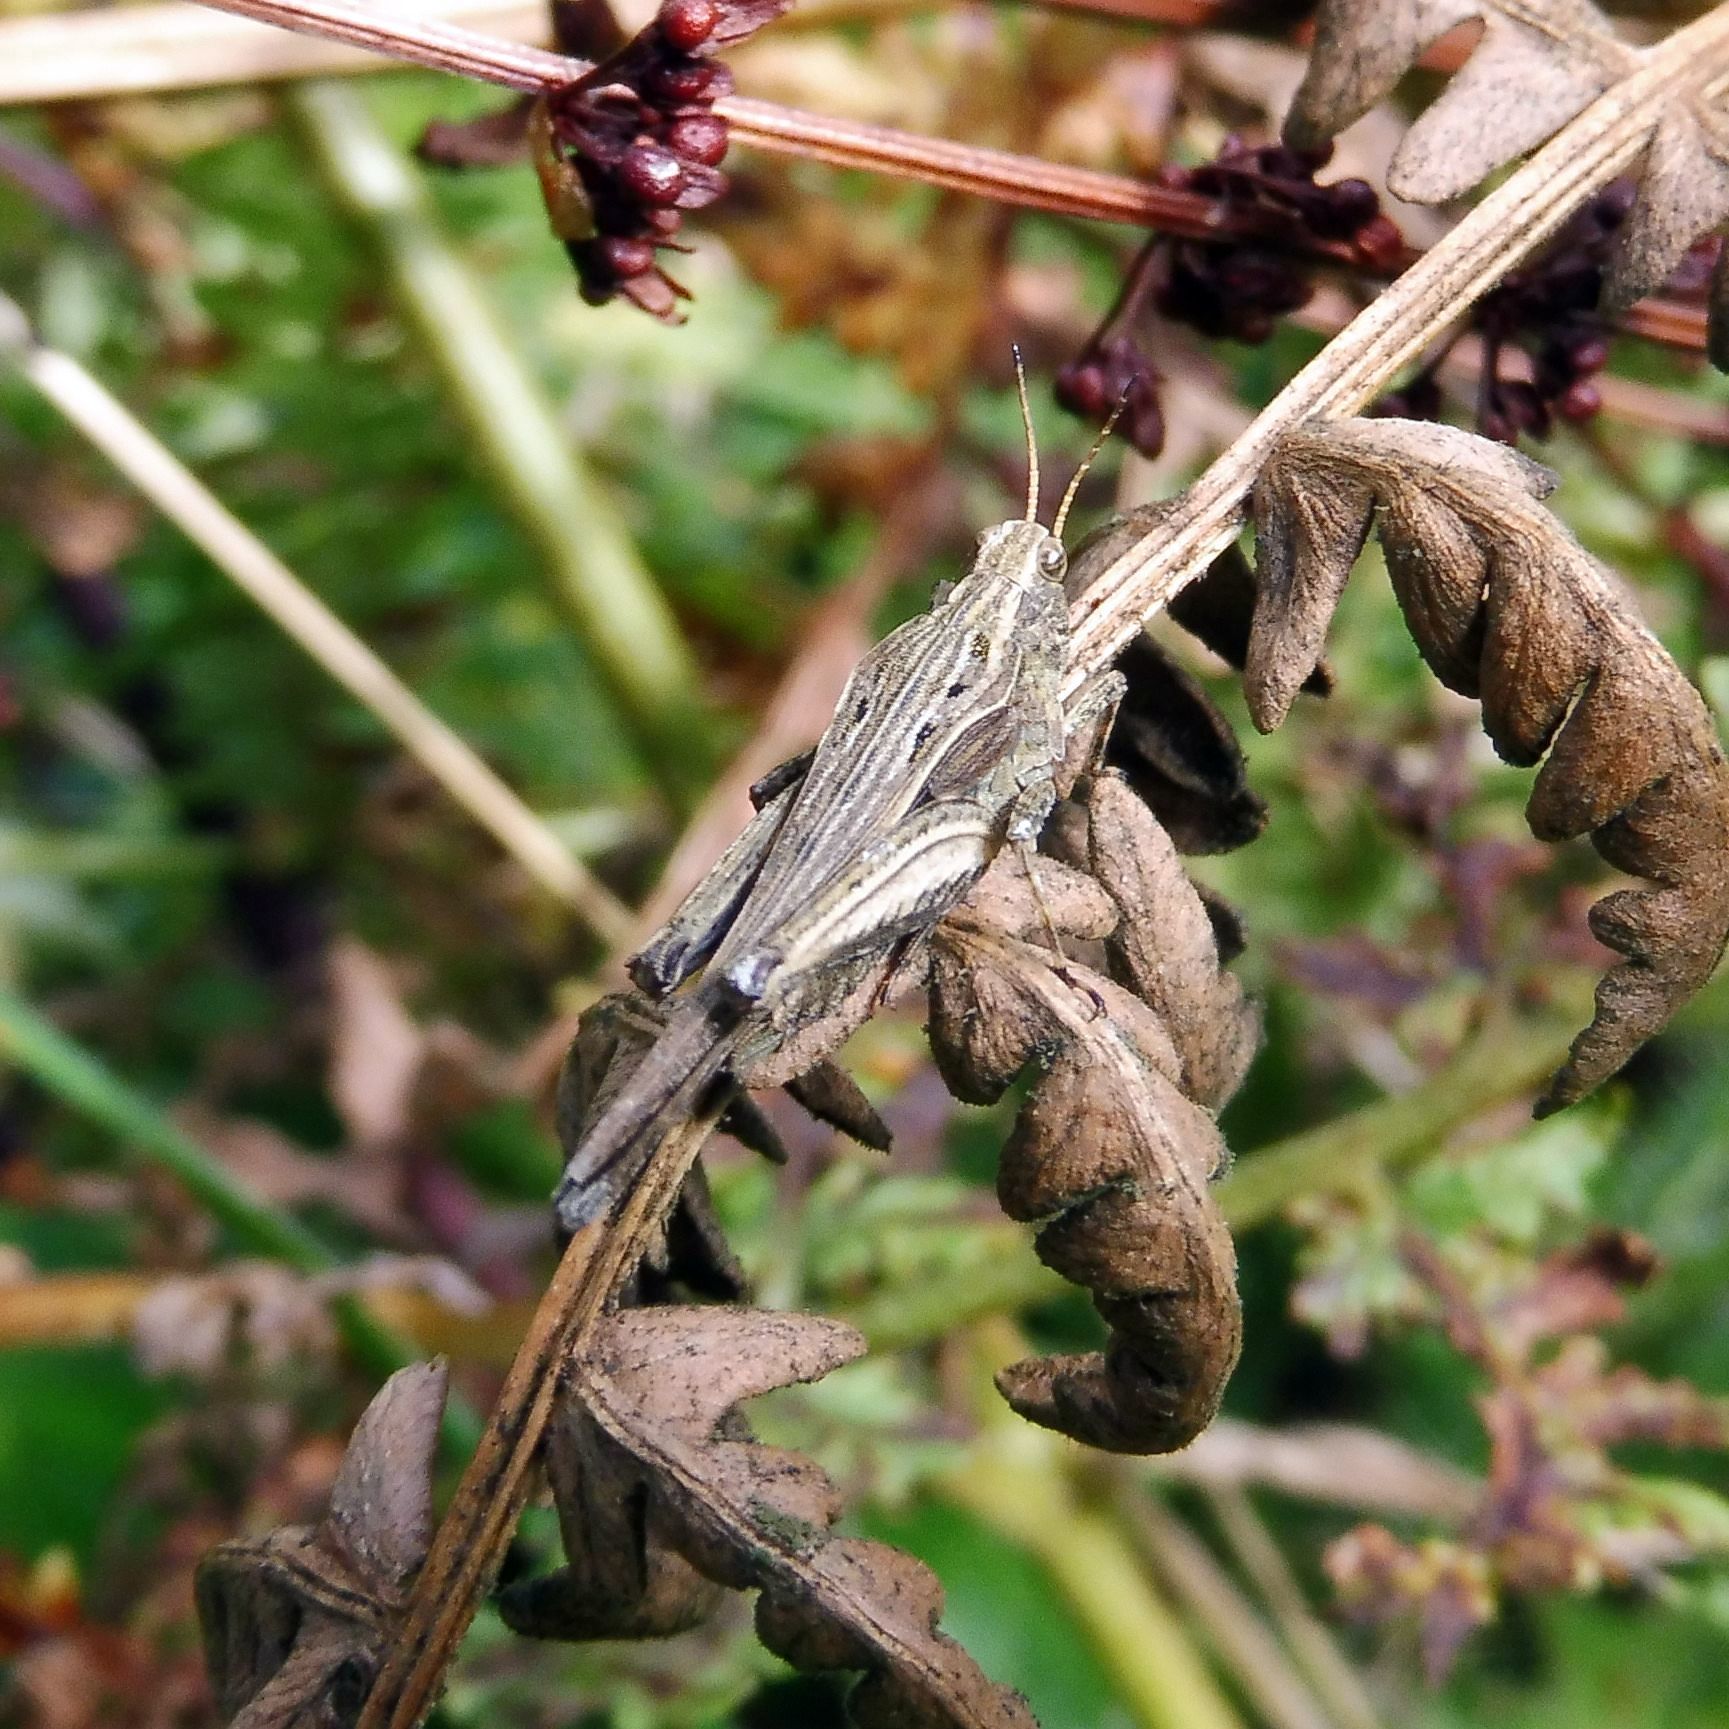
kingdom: Animalia
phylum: Arthropoda
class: Insecta
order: Orthoptera
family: Tetrigidae
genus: Tetrix
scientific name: Tetrix subulata
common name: Slender ground-hopper
